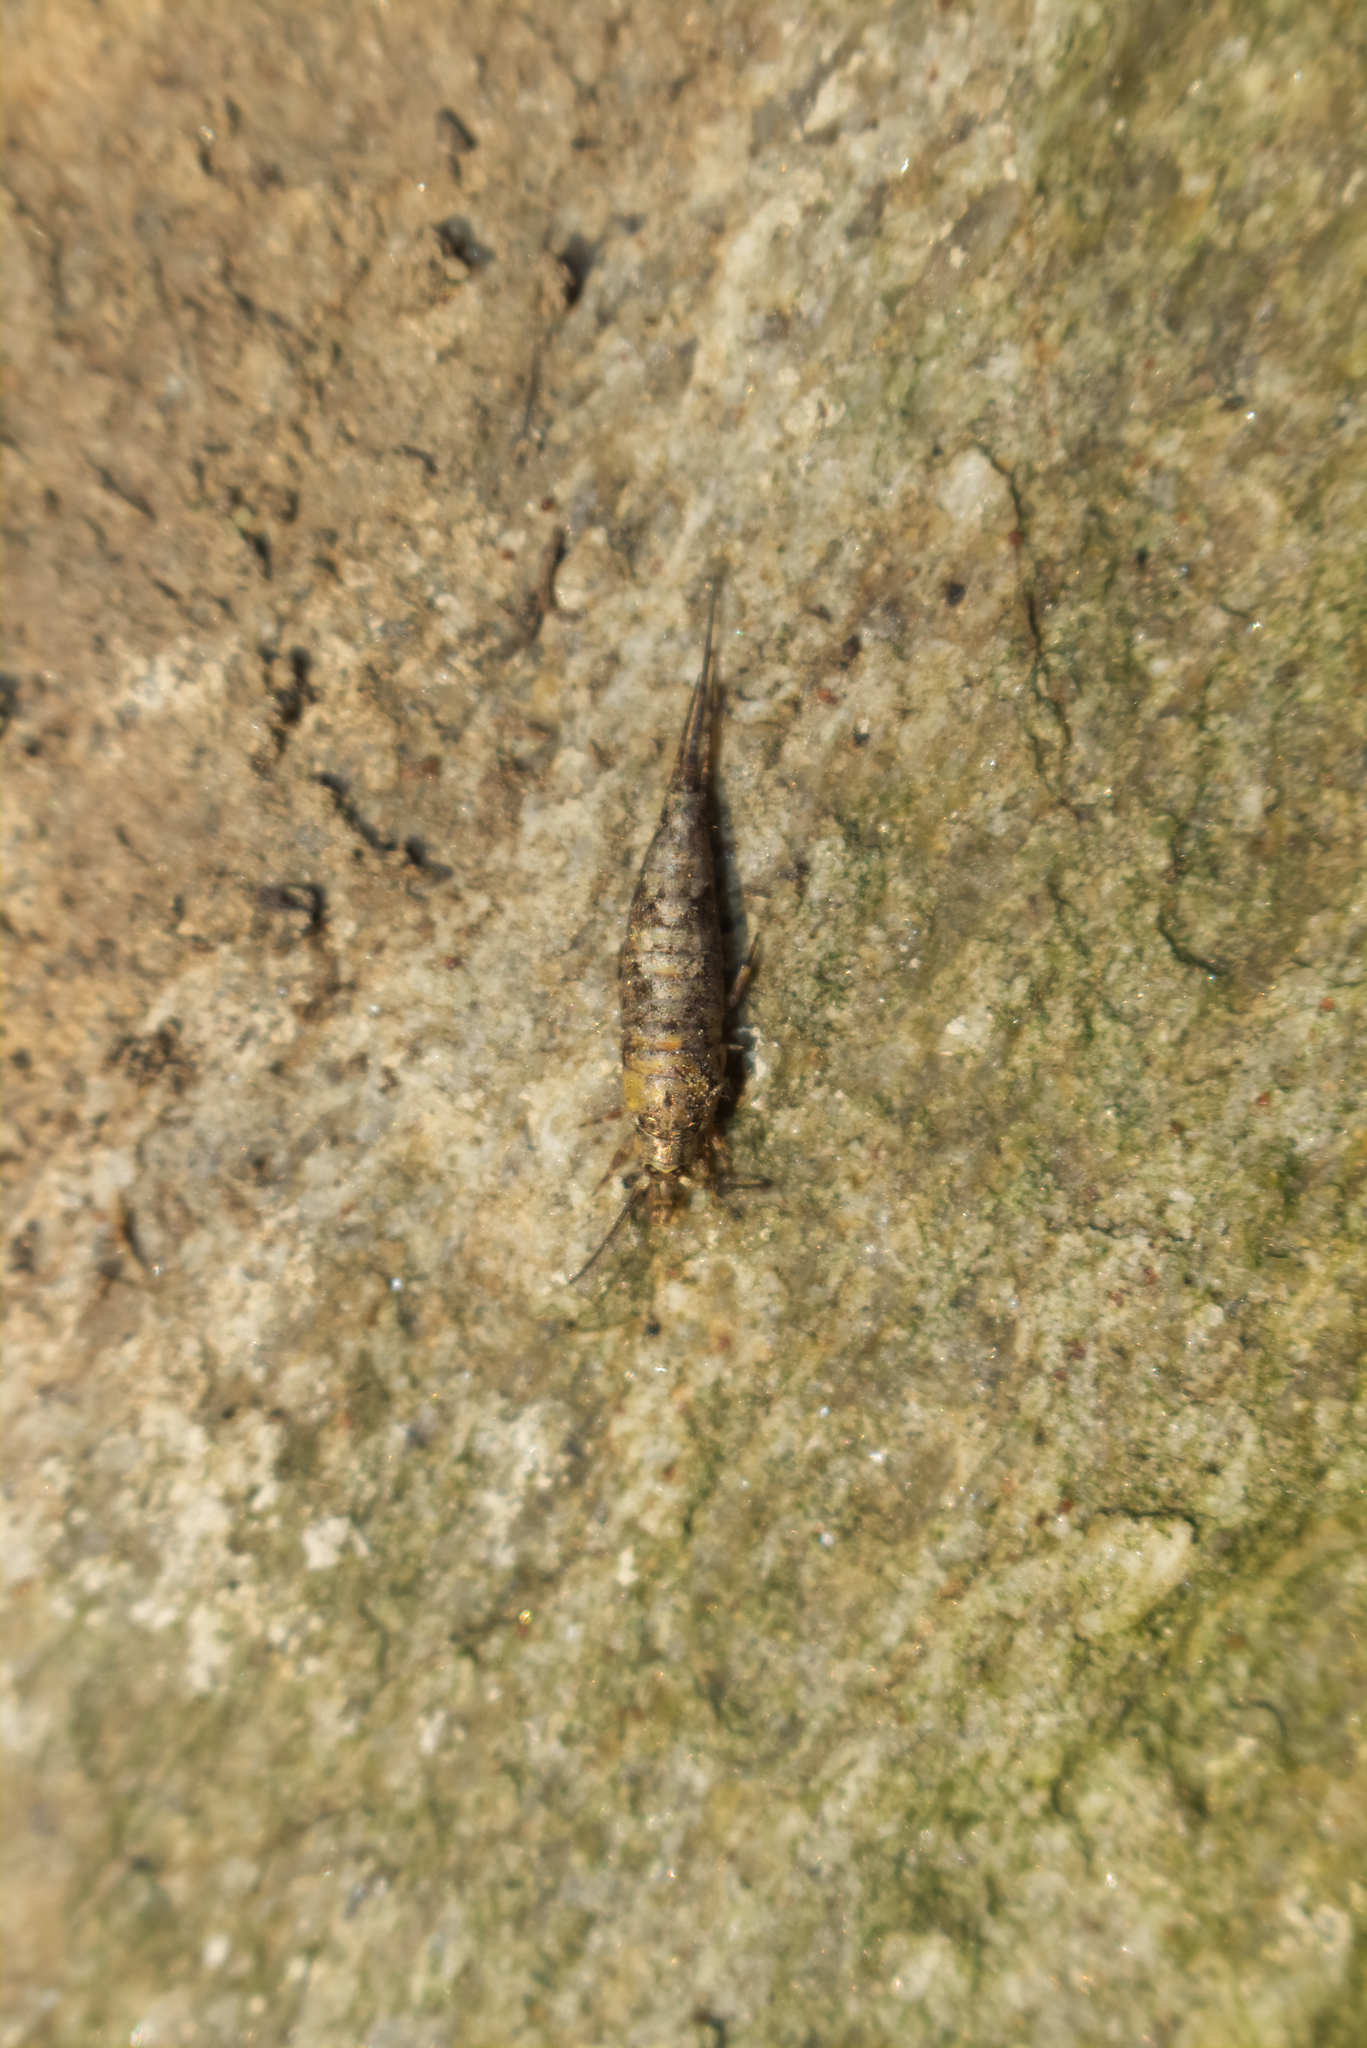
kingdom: Animalia
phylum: Arthropoda
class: Insecta
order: Archaeognatha
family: Machilidae
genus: Lepismachilis
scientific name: Lepismachilis y-signata
